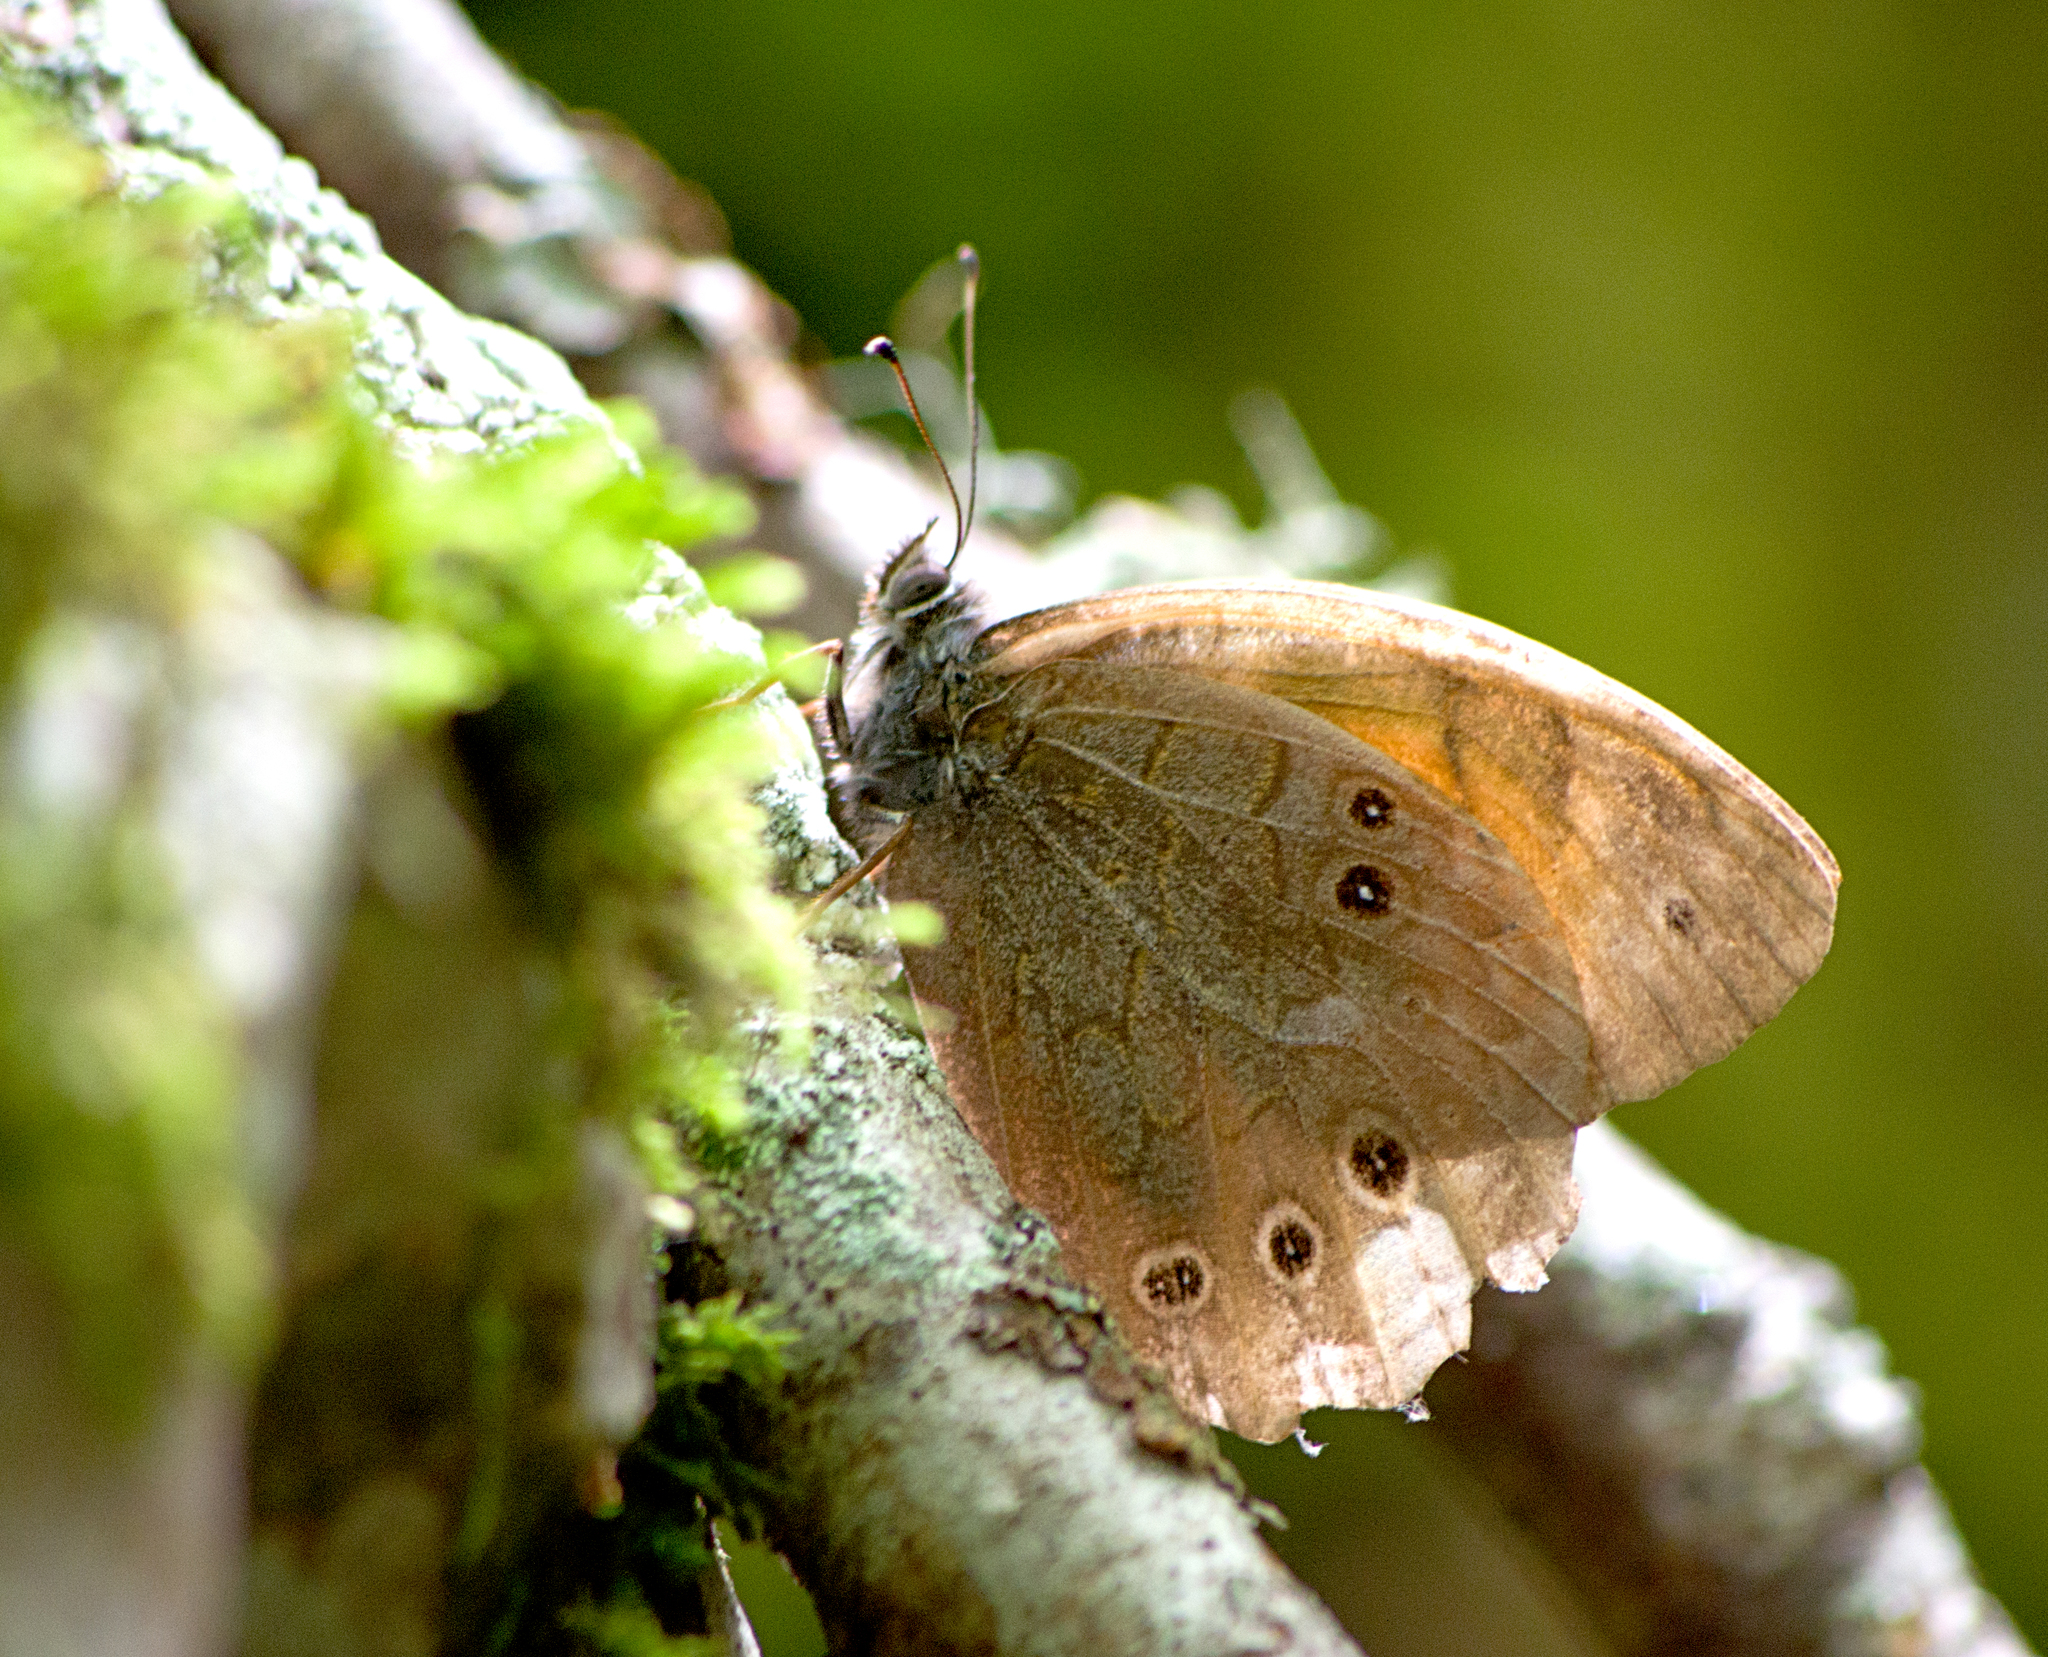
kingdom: Animalia
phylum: Arthropoda
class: Insecta
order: Lepidoptera
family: Nymphalidae
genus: Kirinia
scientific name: Kirinia roxelana
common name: Lattice brown
